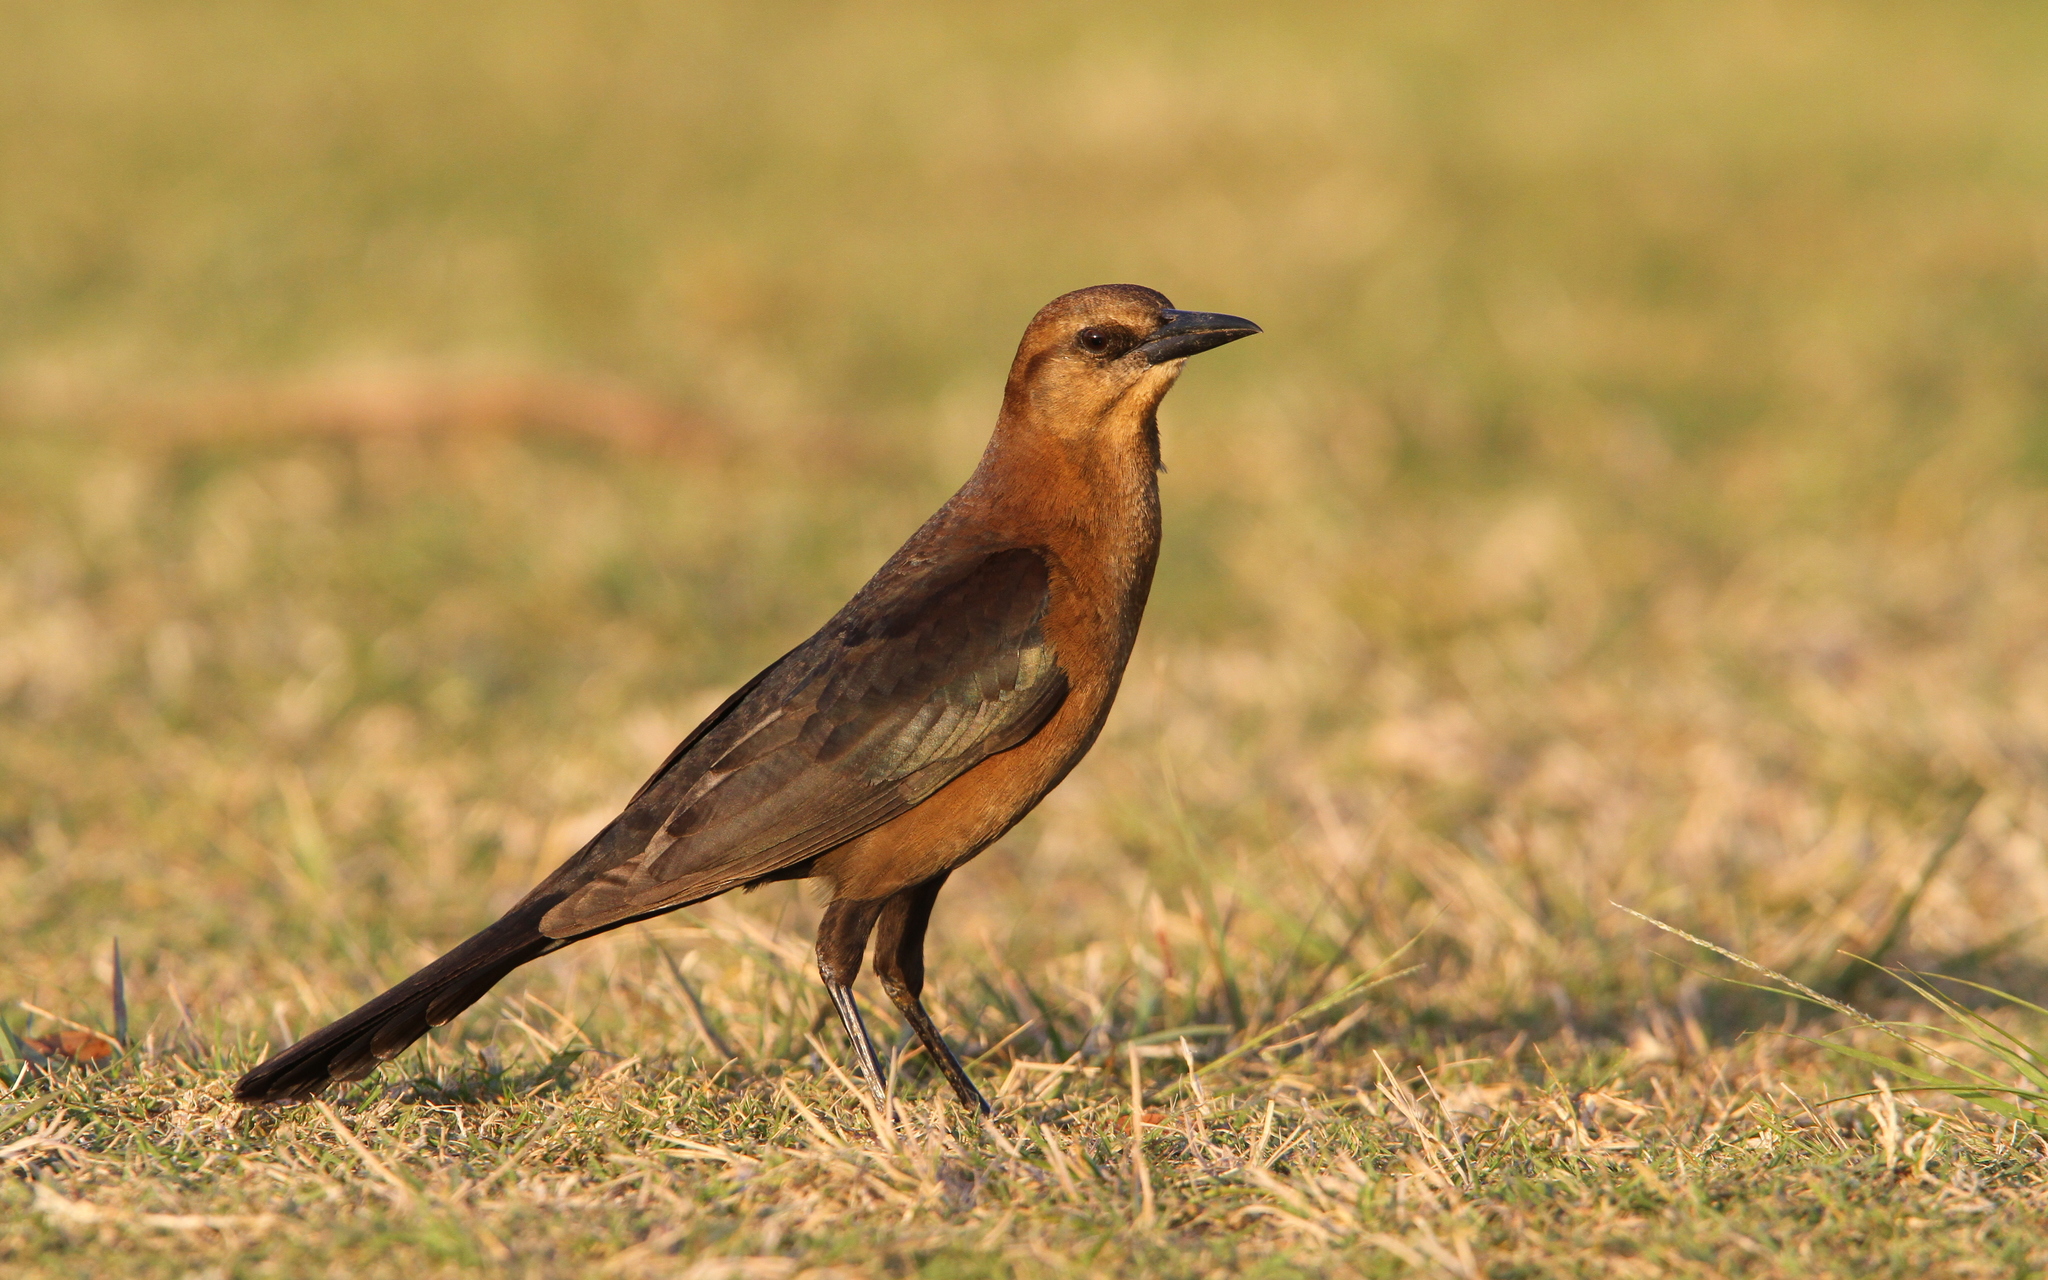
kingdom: Animalia
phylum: Chordata
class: Aves
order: Passeriformes
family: Icteridae
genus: Quiscalus
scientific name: Quiscalus major
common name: Boat-tailed grackle
